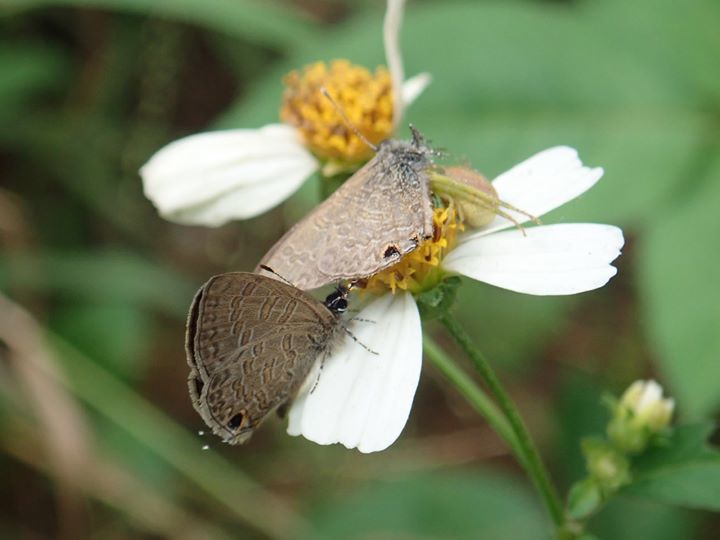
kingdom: Animalia
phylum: Arthropoda
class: Insecta
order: Lepidoptera
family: Lycaenidae
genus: Prosotas
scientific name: Prosotas nora
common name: Common line blue
